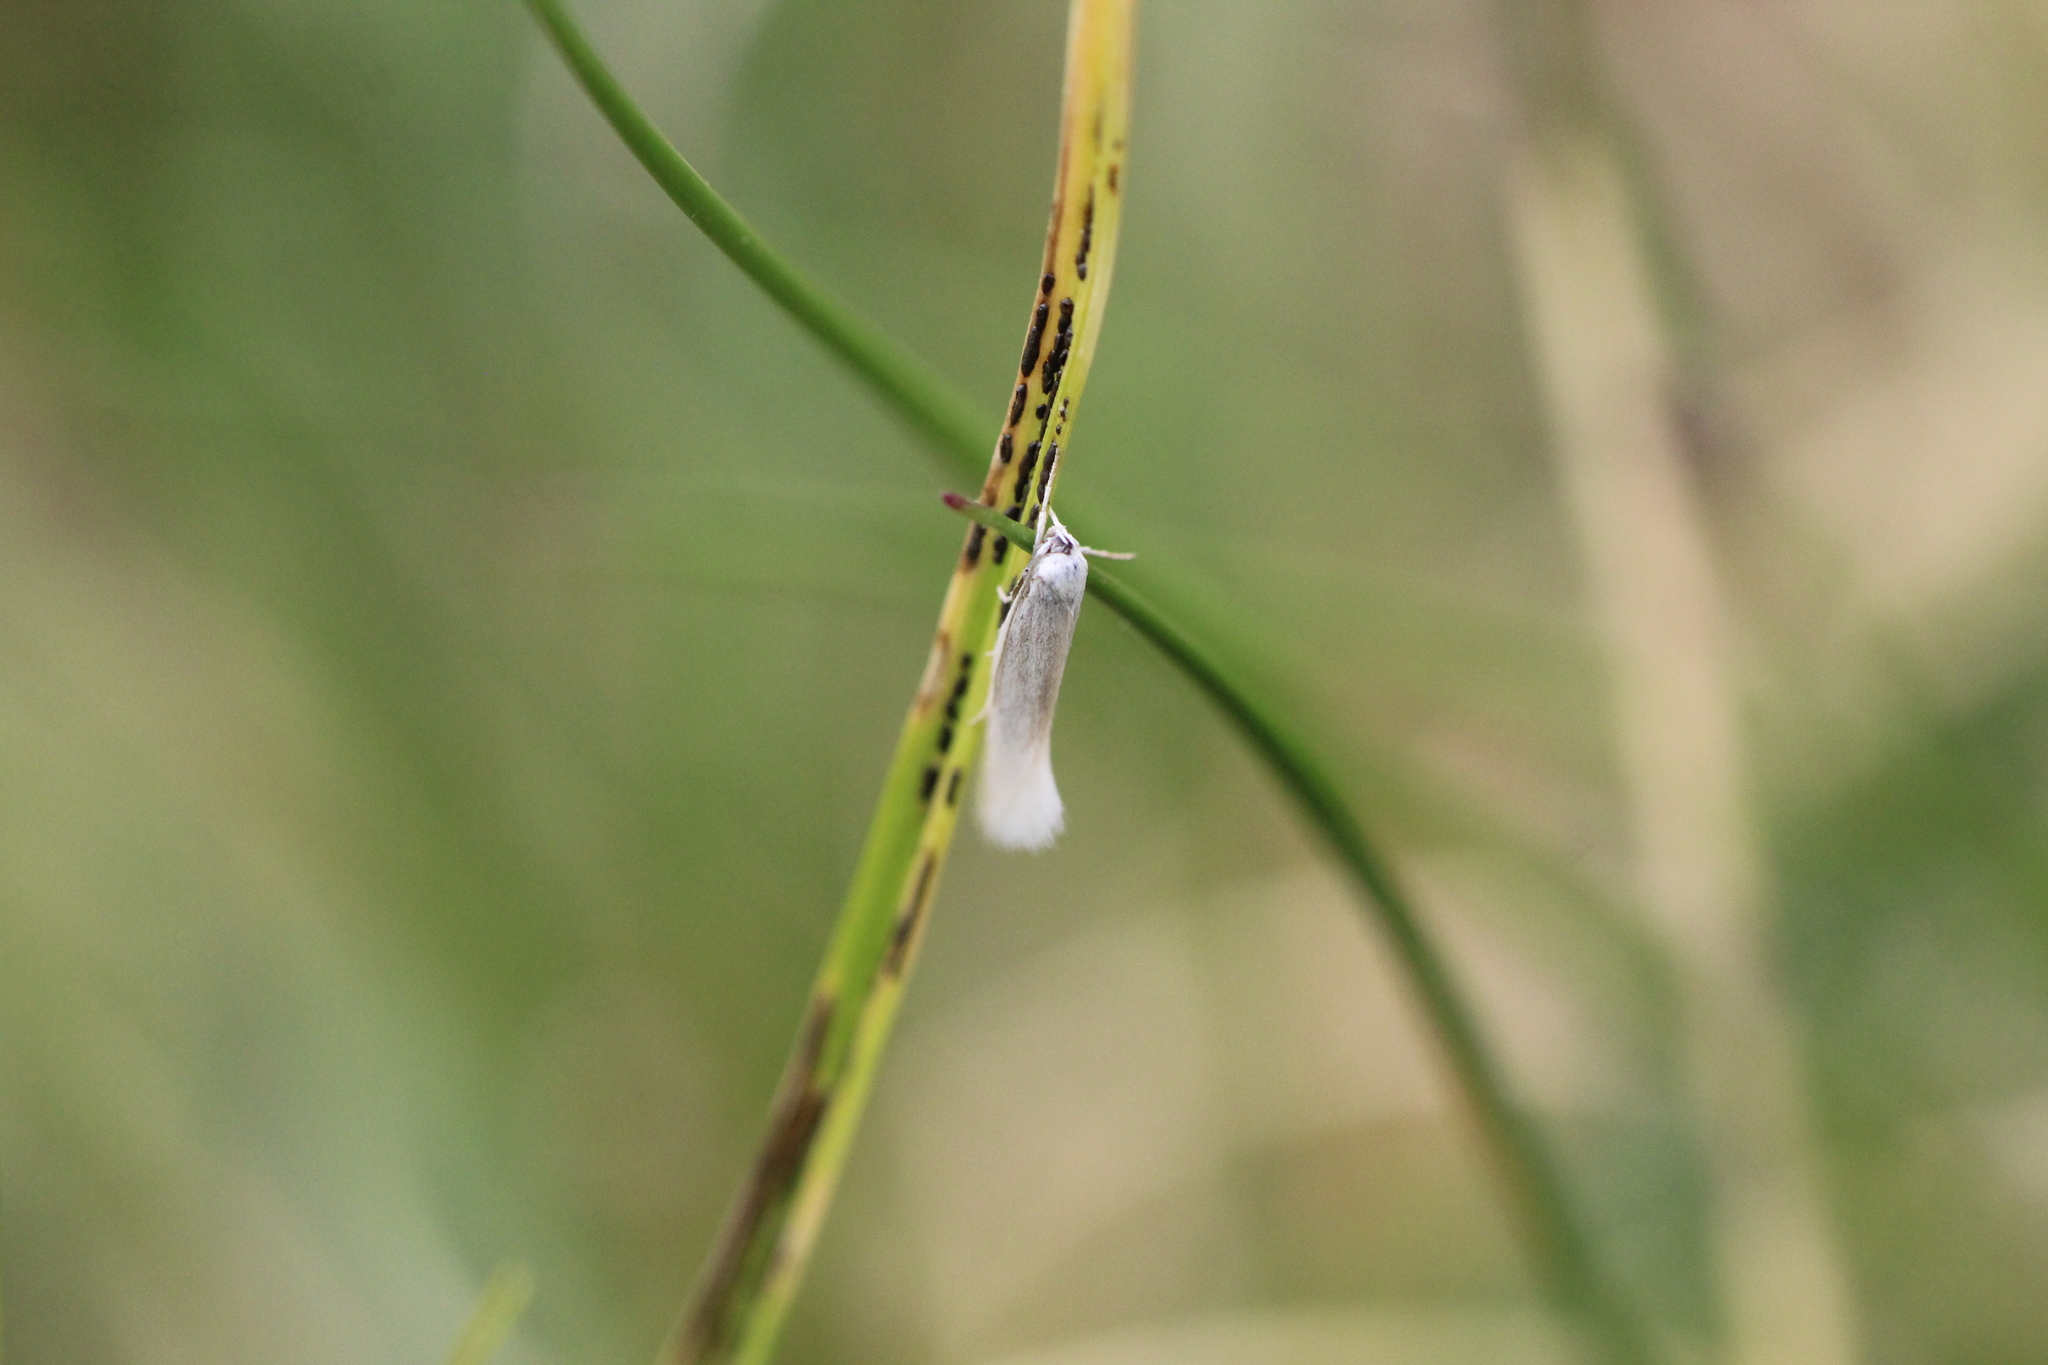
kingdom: Animalia
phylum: Arthropoda
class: Insecta
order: Lepidoptera
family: Elachistidae
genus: Elachista
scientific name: Elachista argentella
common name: Swan-feather dwarf
